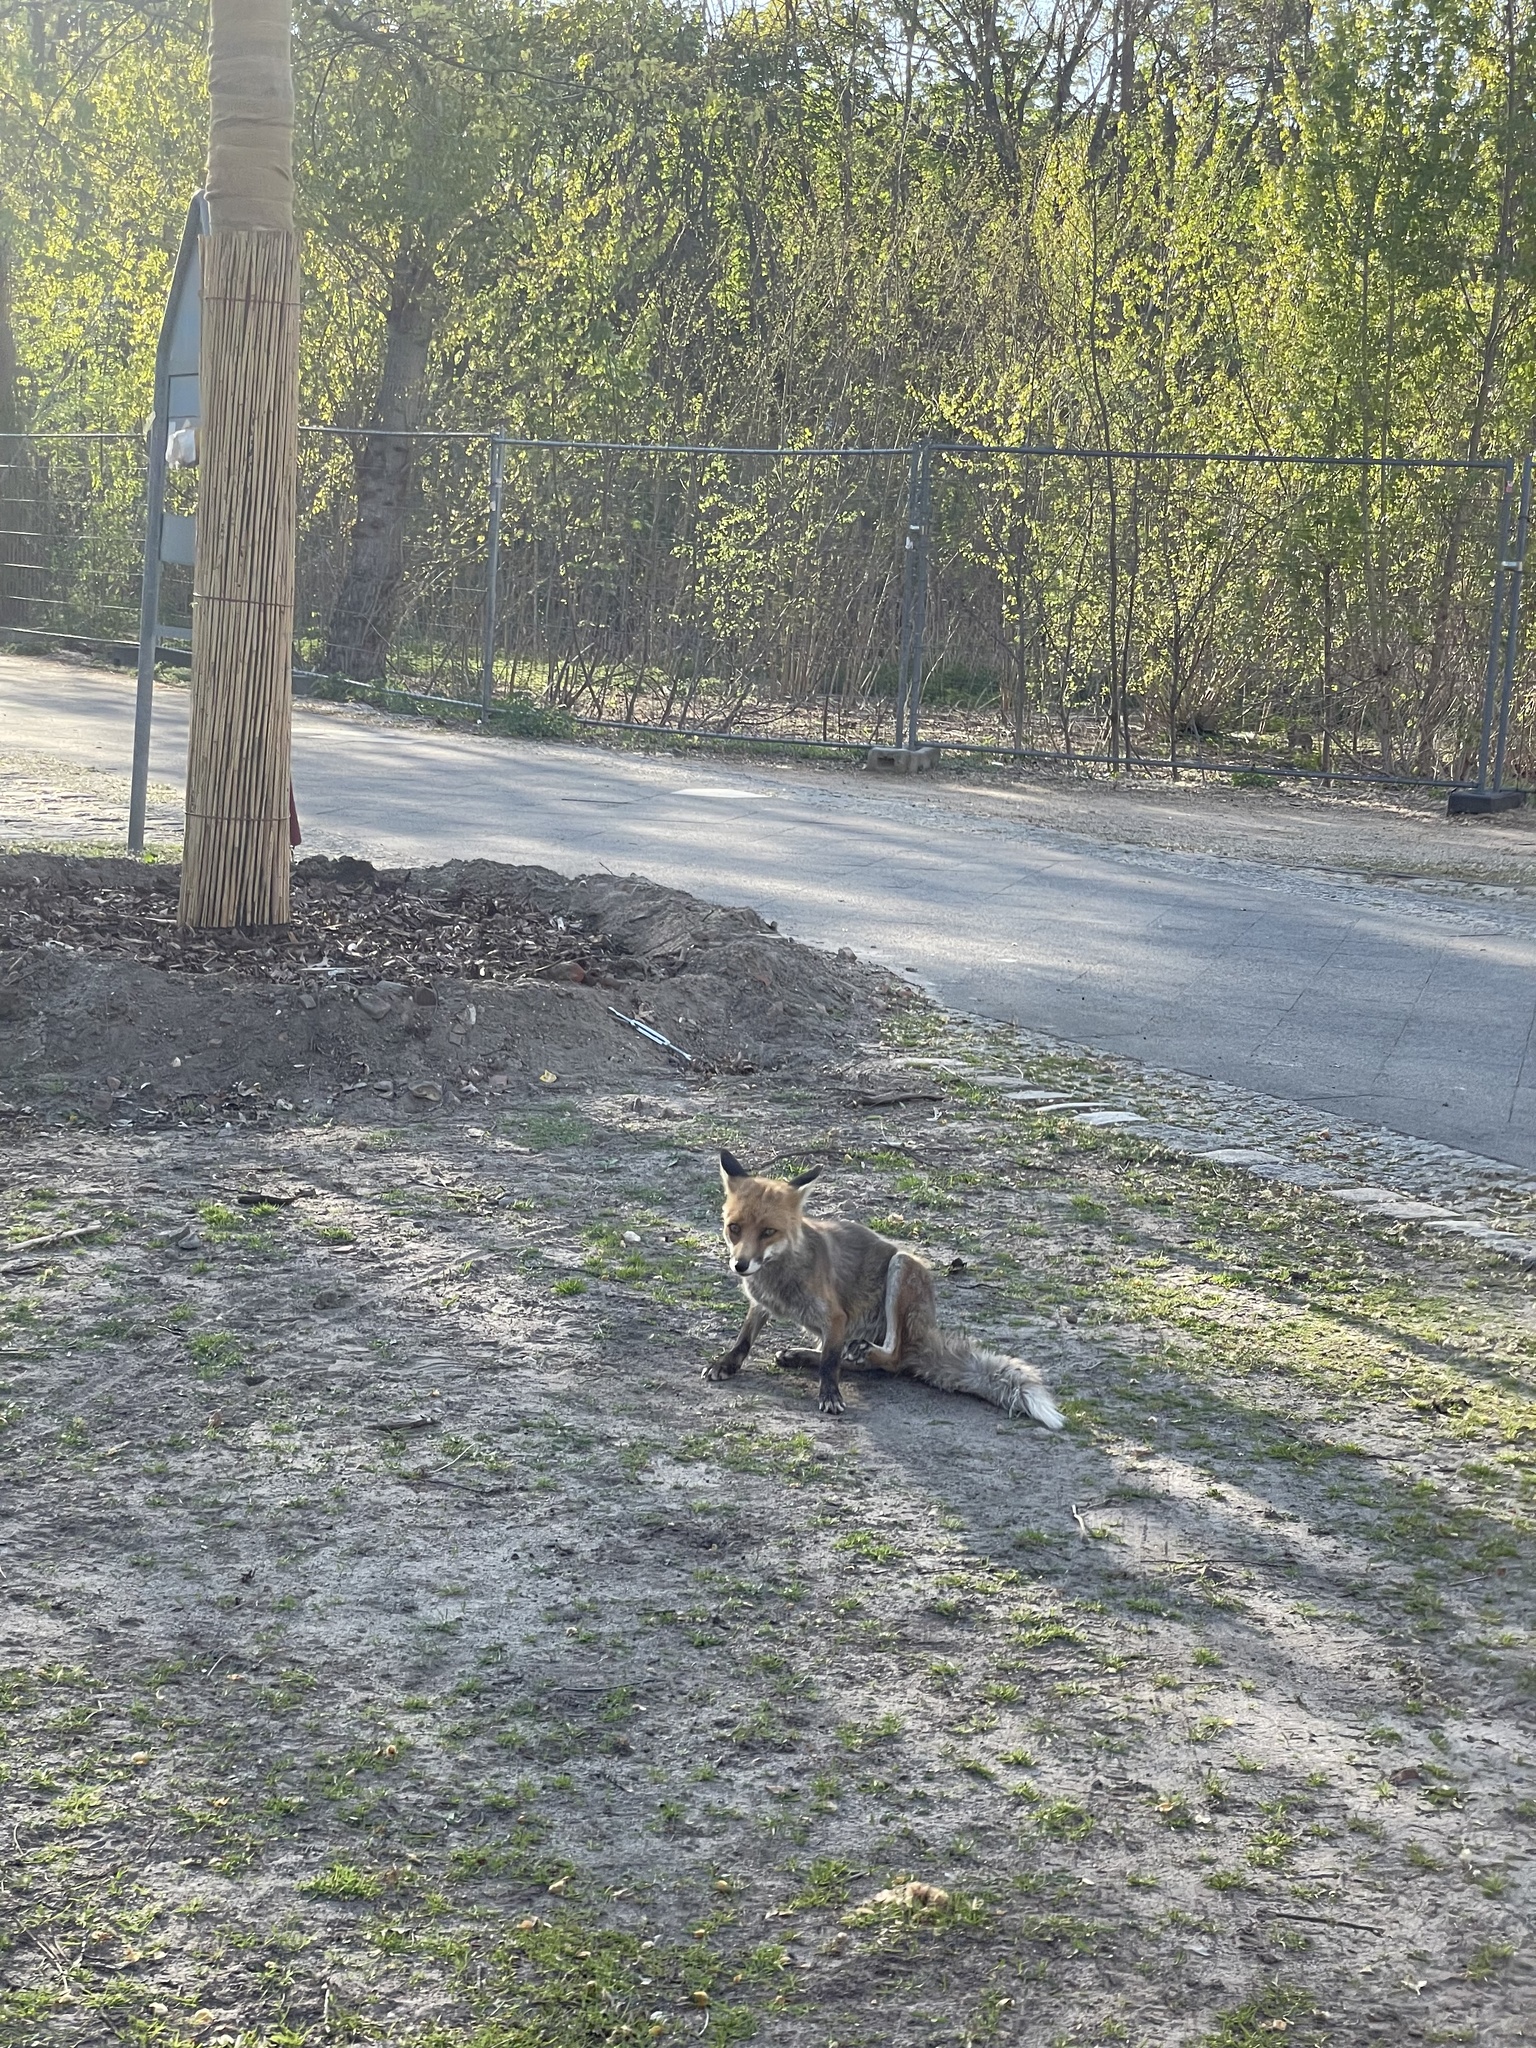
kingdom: Animalia
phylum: Chordata
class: Mammalia
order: Carnivora
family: Canidae
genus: Vulpes
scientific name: Vulpes vulpes
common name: Red fox
